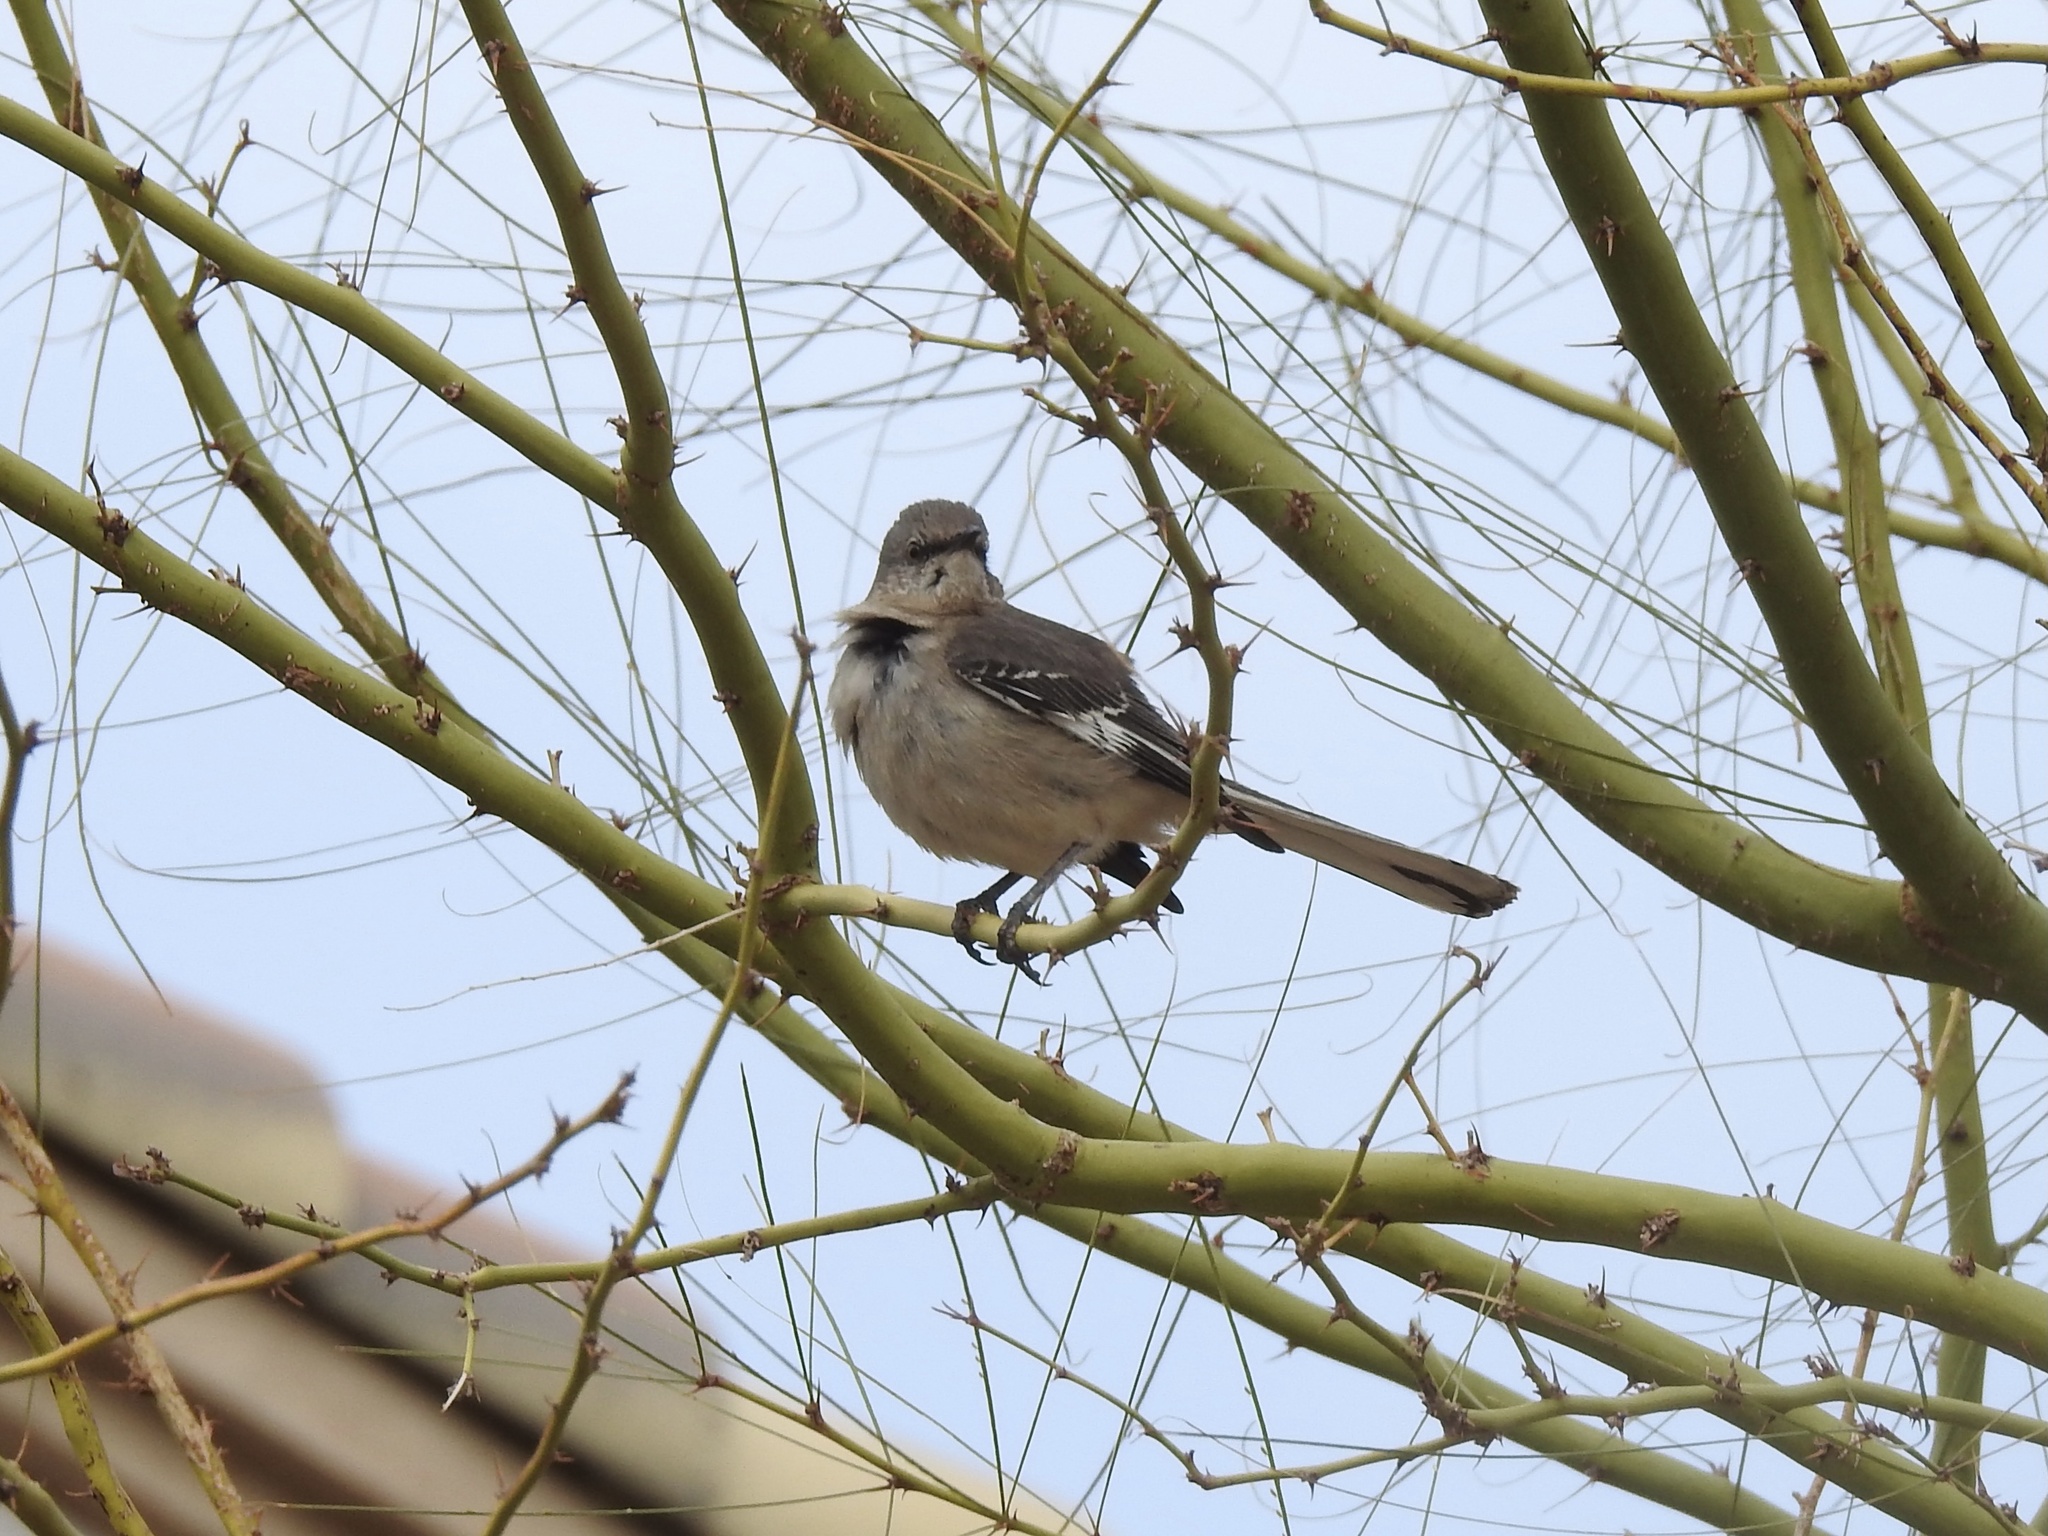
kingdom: Animalia
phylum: Chordata
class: Aves
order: Passeriformes
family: Mimidae
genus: Mimus
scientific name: Mimus polyglottos
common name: Northern mockingbird
